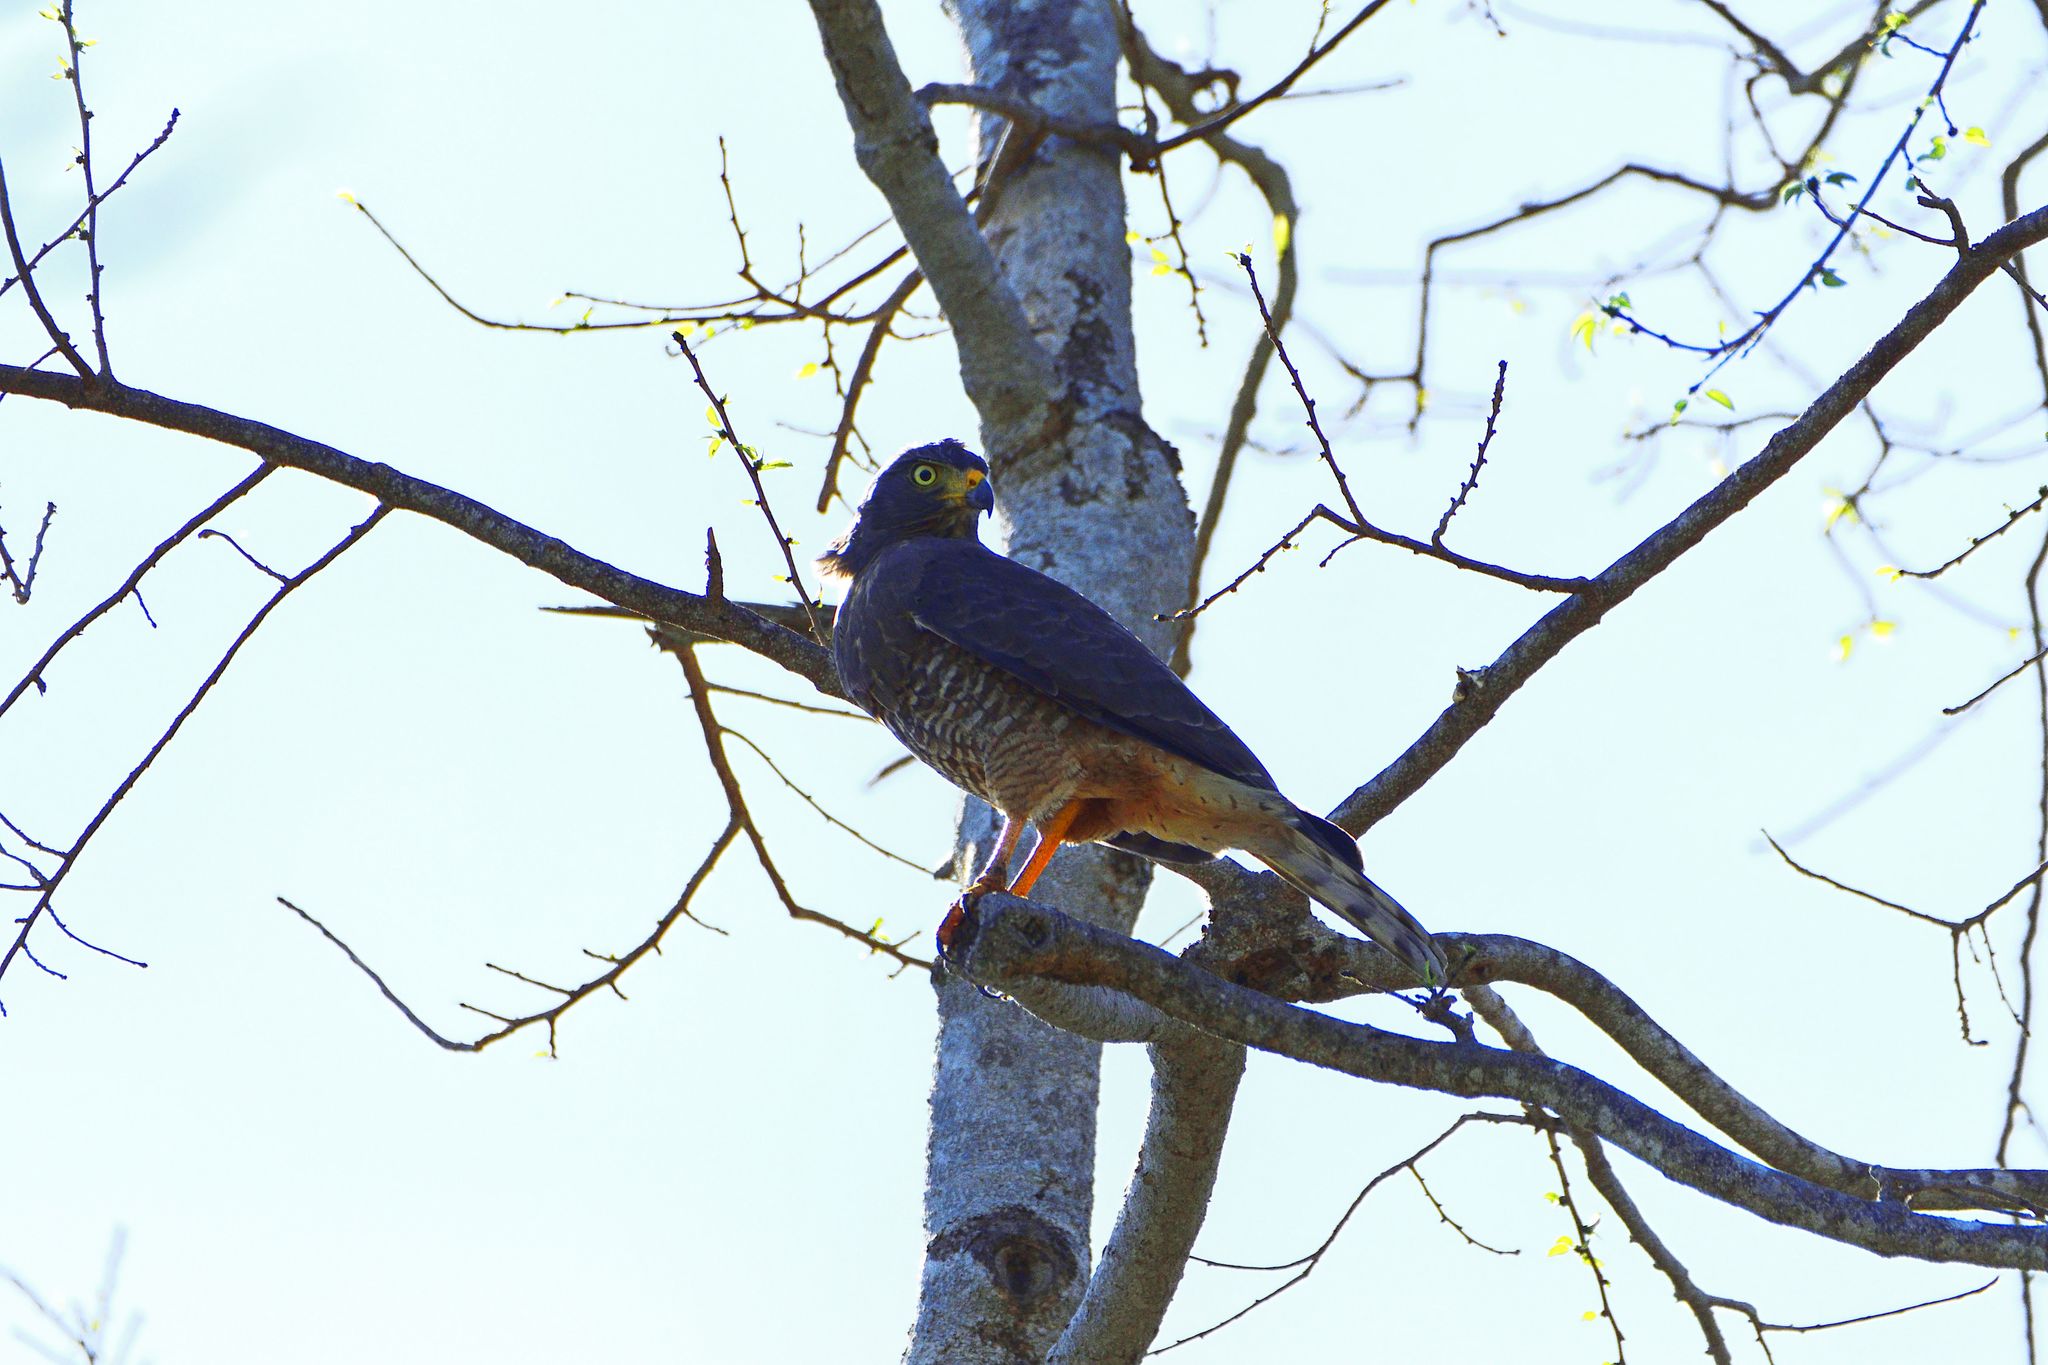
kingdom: Animalia
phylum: Chordata
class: Aves
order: Accipitriformes
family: Accipitridae
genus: Rupornis
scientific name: Rupornis magnirostris
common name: Roadside hawk
